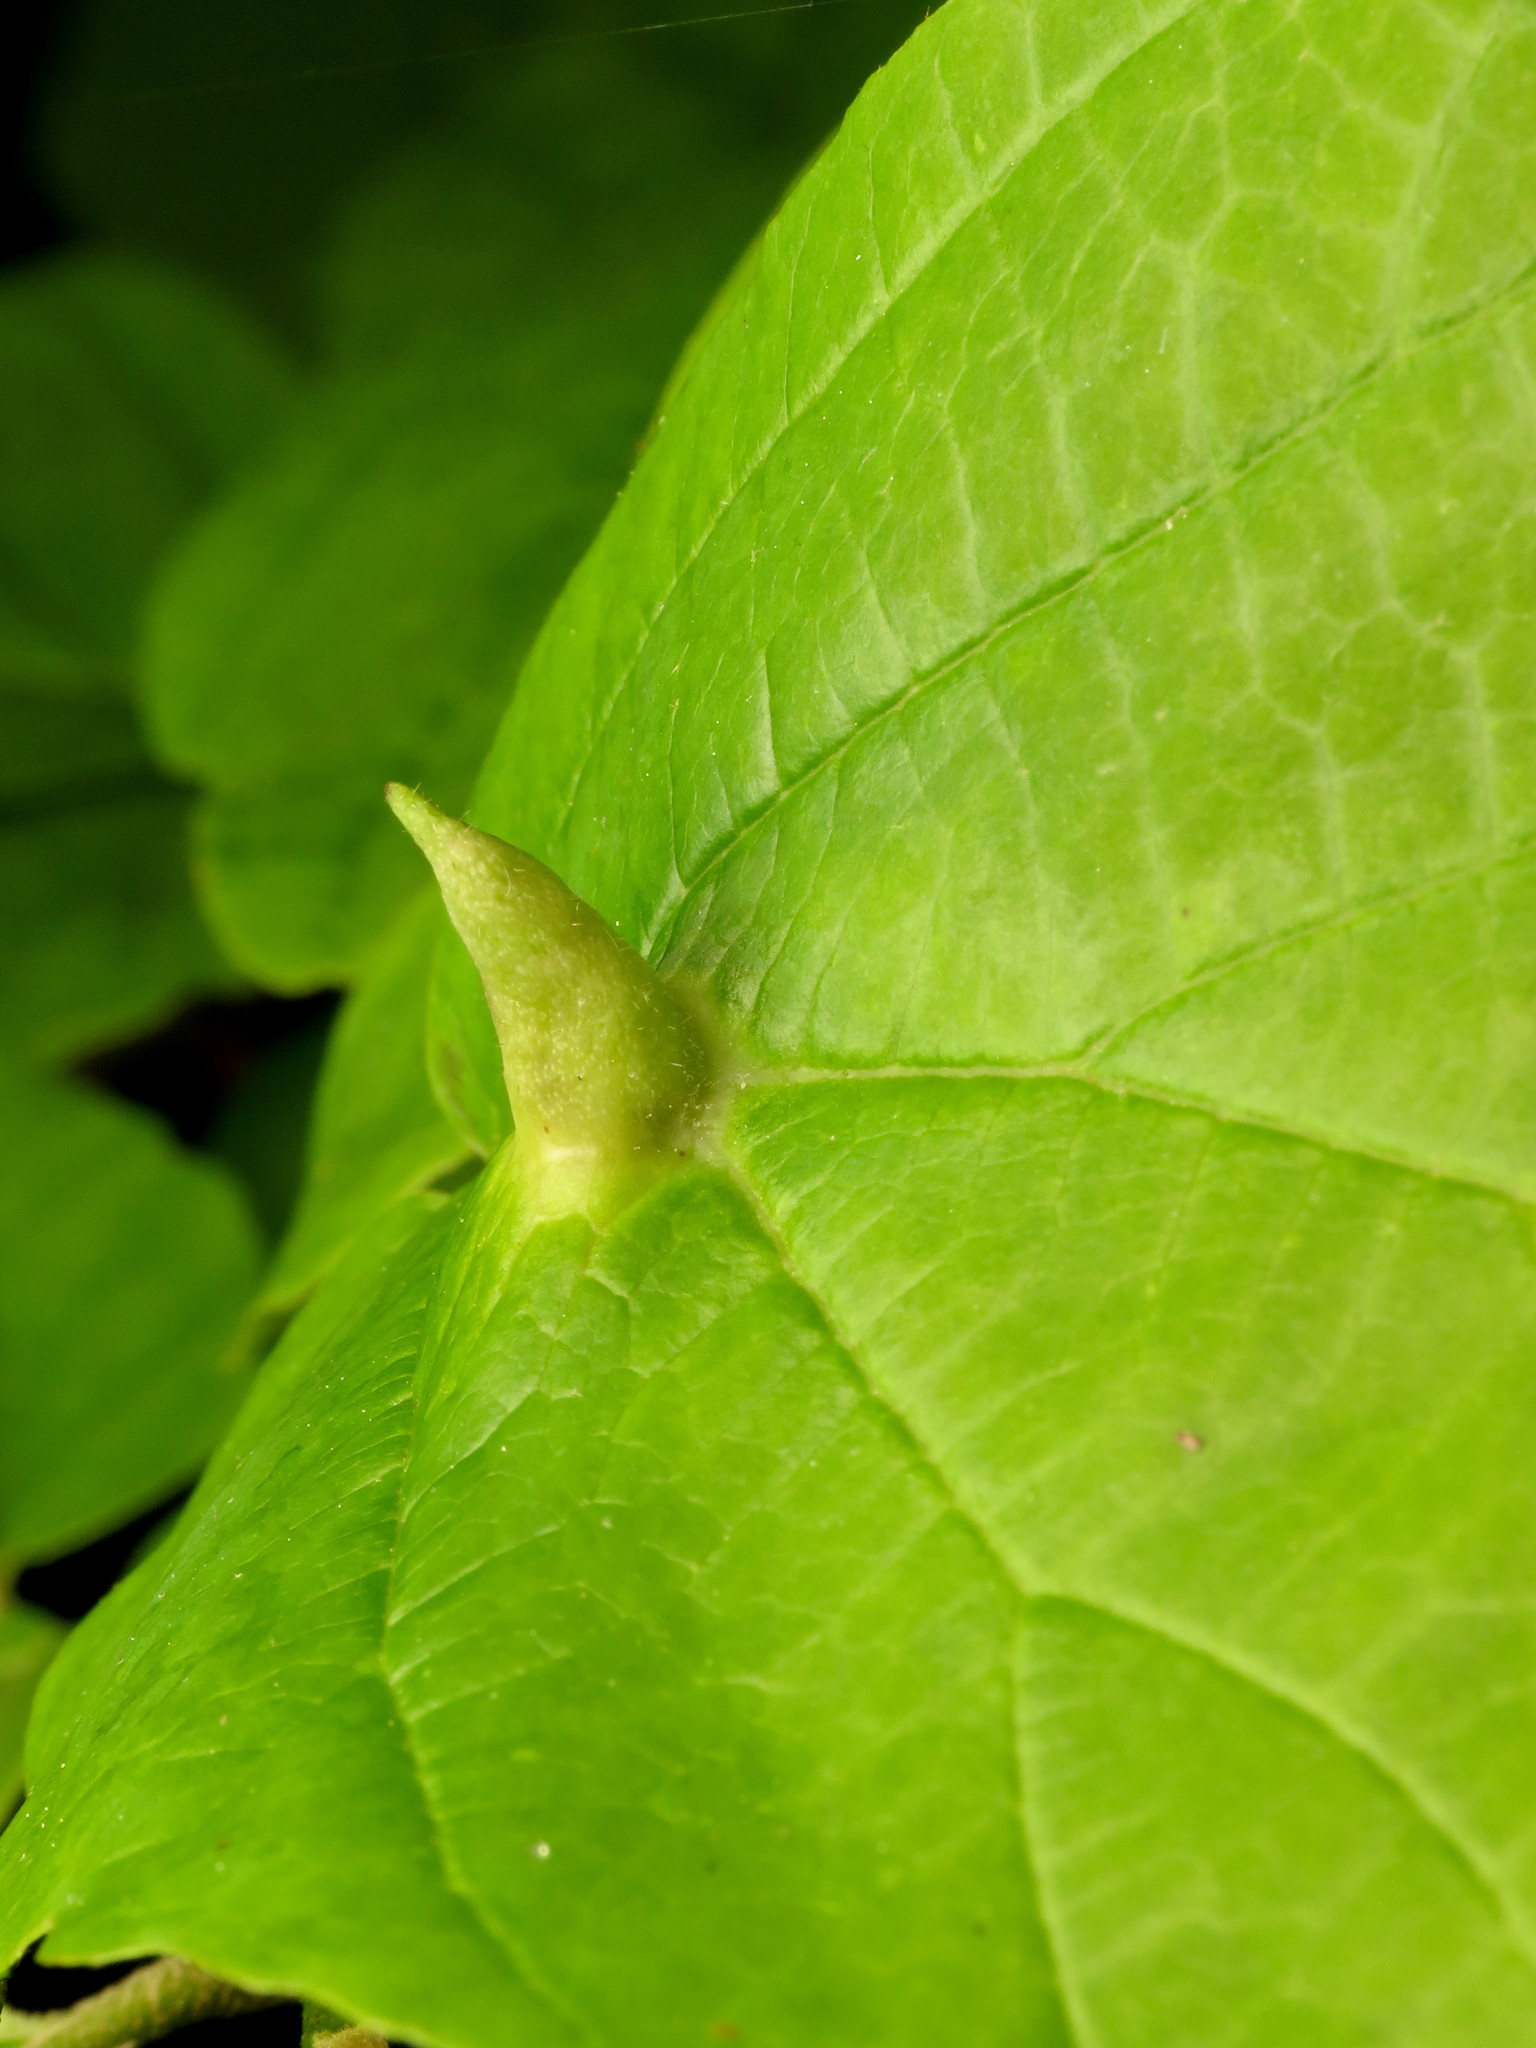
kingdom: Animalia
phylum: Arthropoda
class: Insecta
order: Hemiptera
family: Aphididae
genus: Hormaphis
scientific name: Hormaphis hamamelidis
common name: Witch-hazel cone gall aphid
